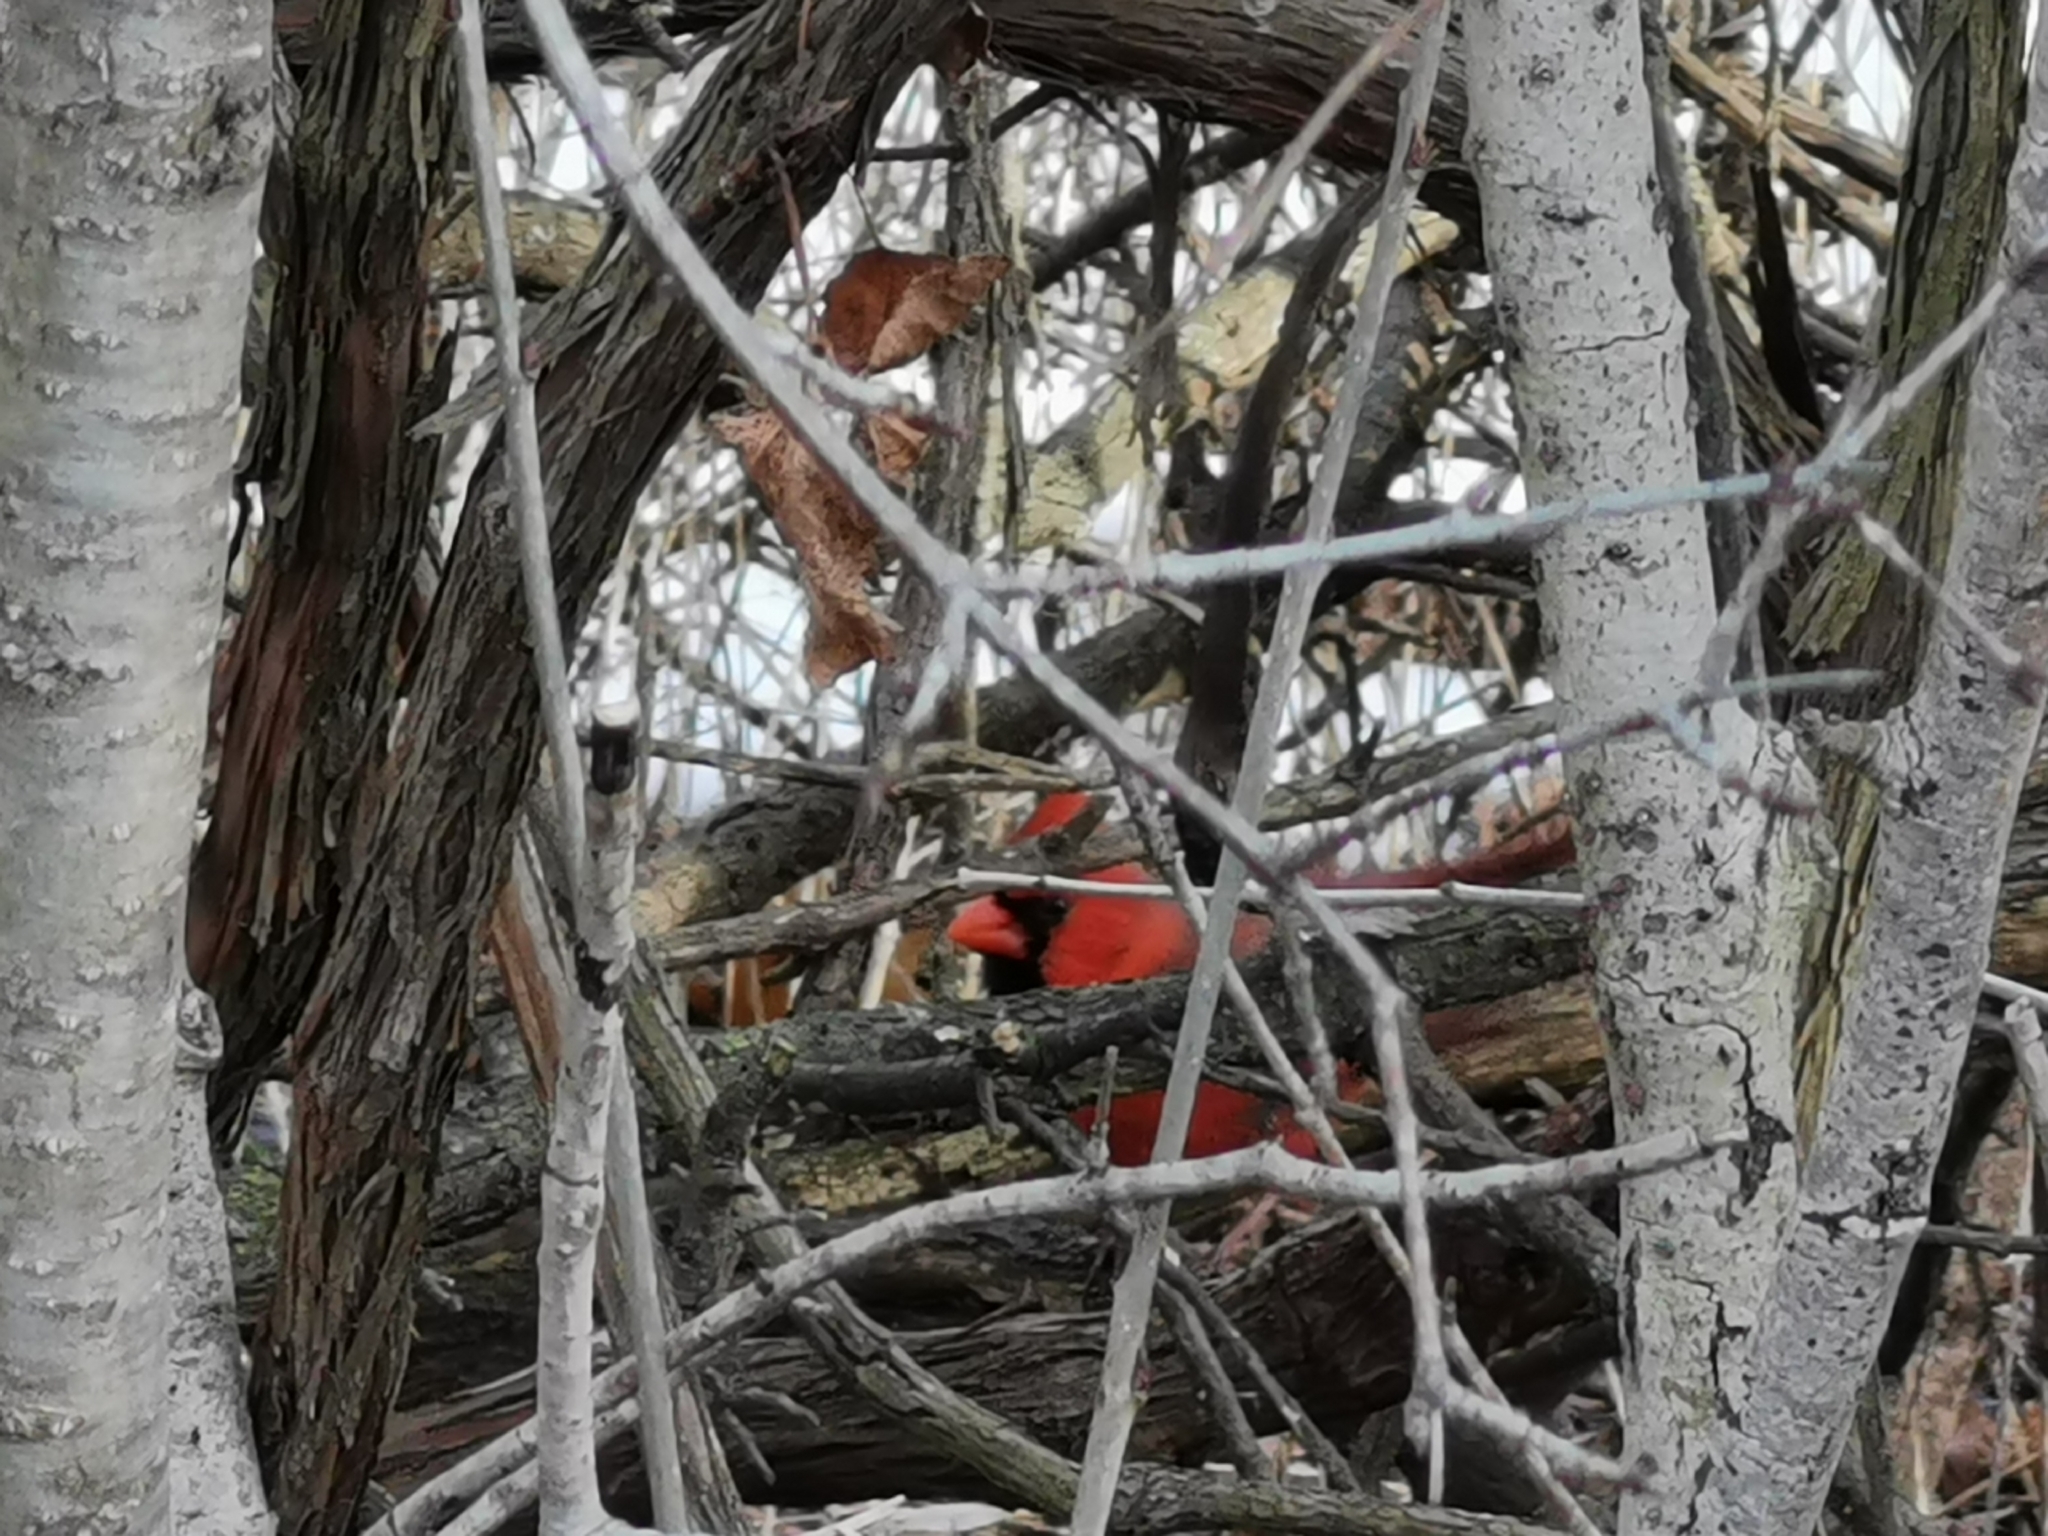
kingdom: Animalia
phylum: Chordata
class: Aves
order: Passeriformes
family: Cardinalidae
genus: Cardinalis
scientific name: Cardinalis cardinalis
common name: Northern cardinal
